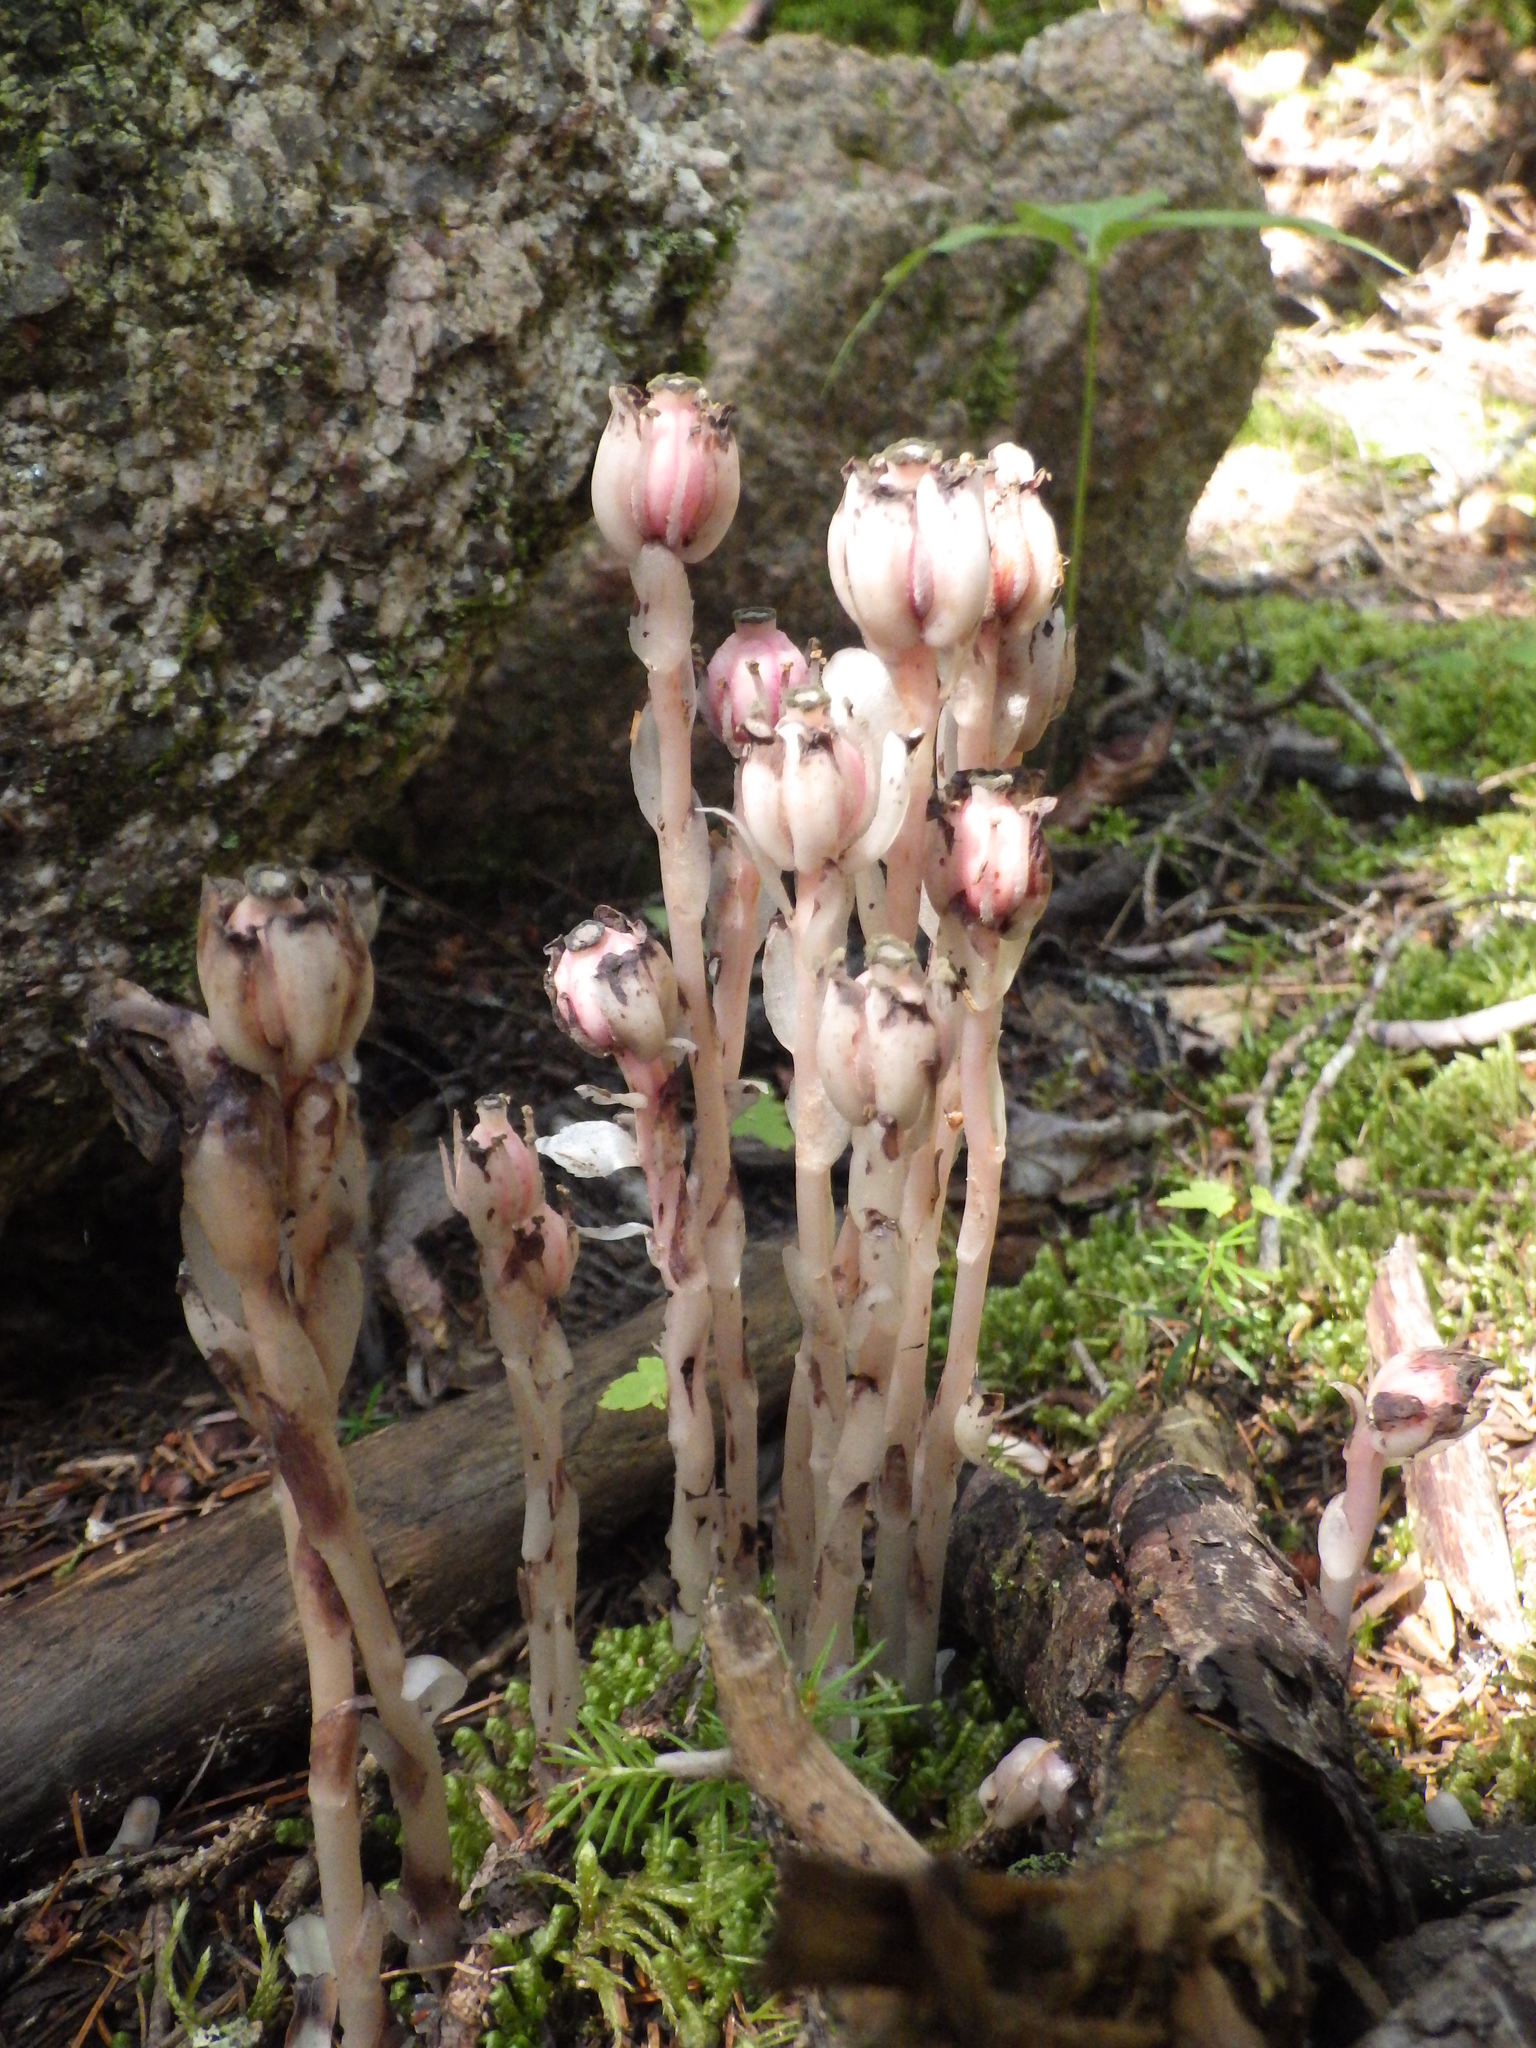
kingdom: Plantae
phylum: Tracheophyta
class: Magnoliopsida
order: Ericales
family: Ericaceae
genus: Monotropa
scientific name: Monotropa uniflora
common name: Convulsion root
